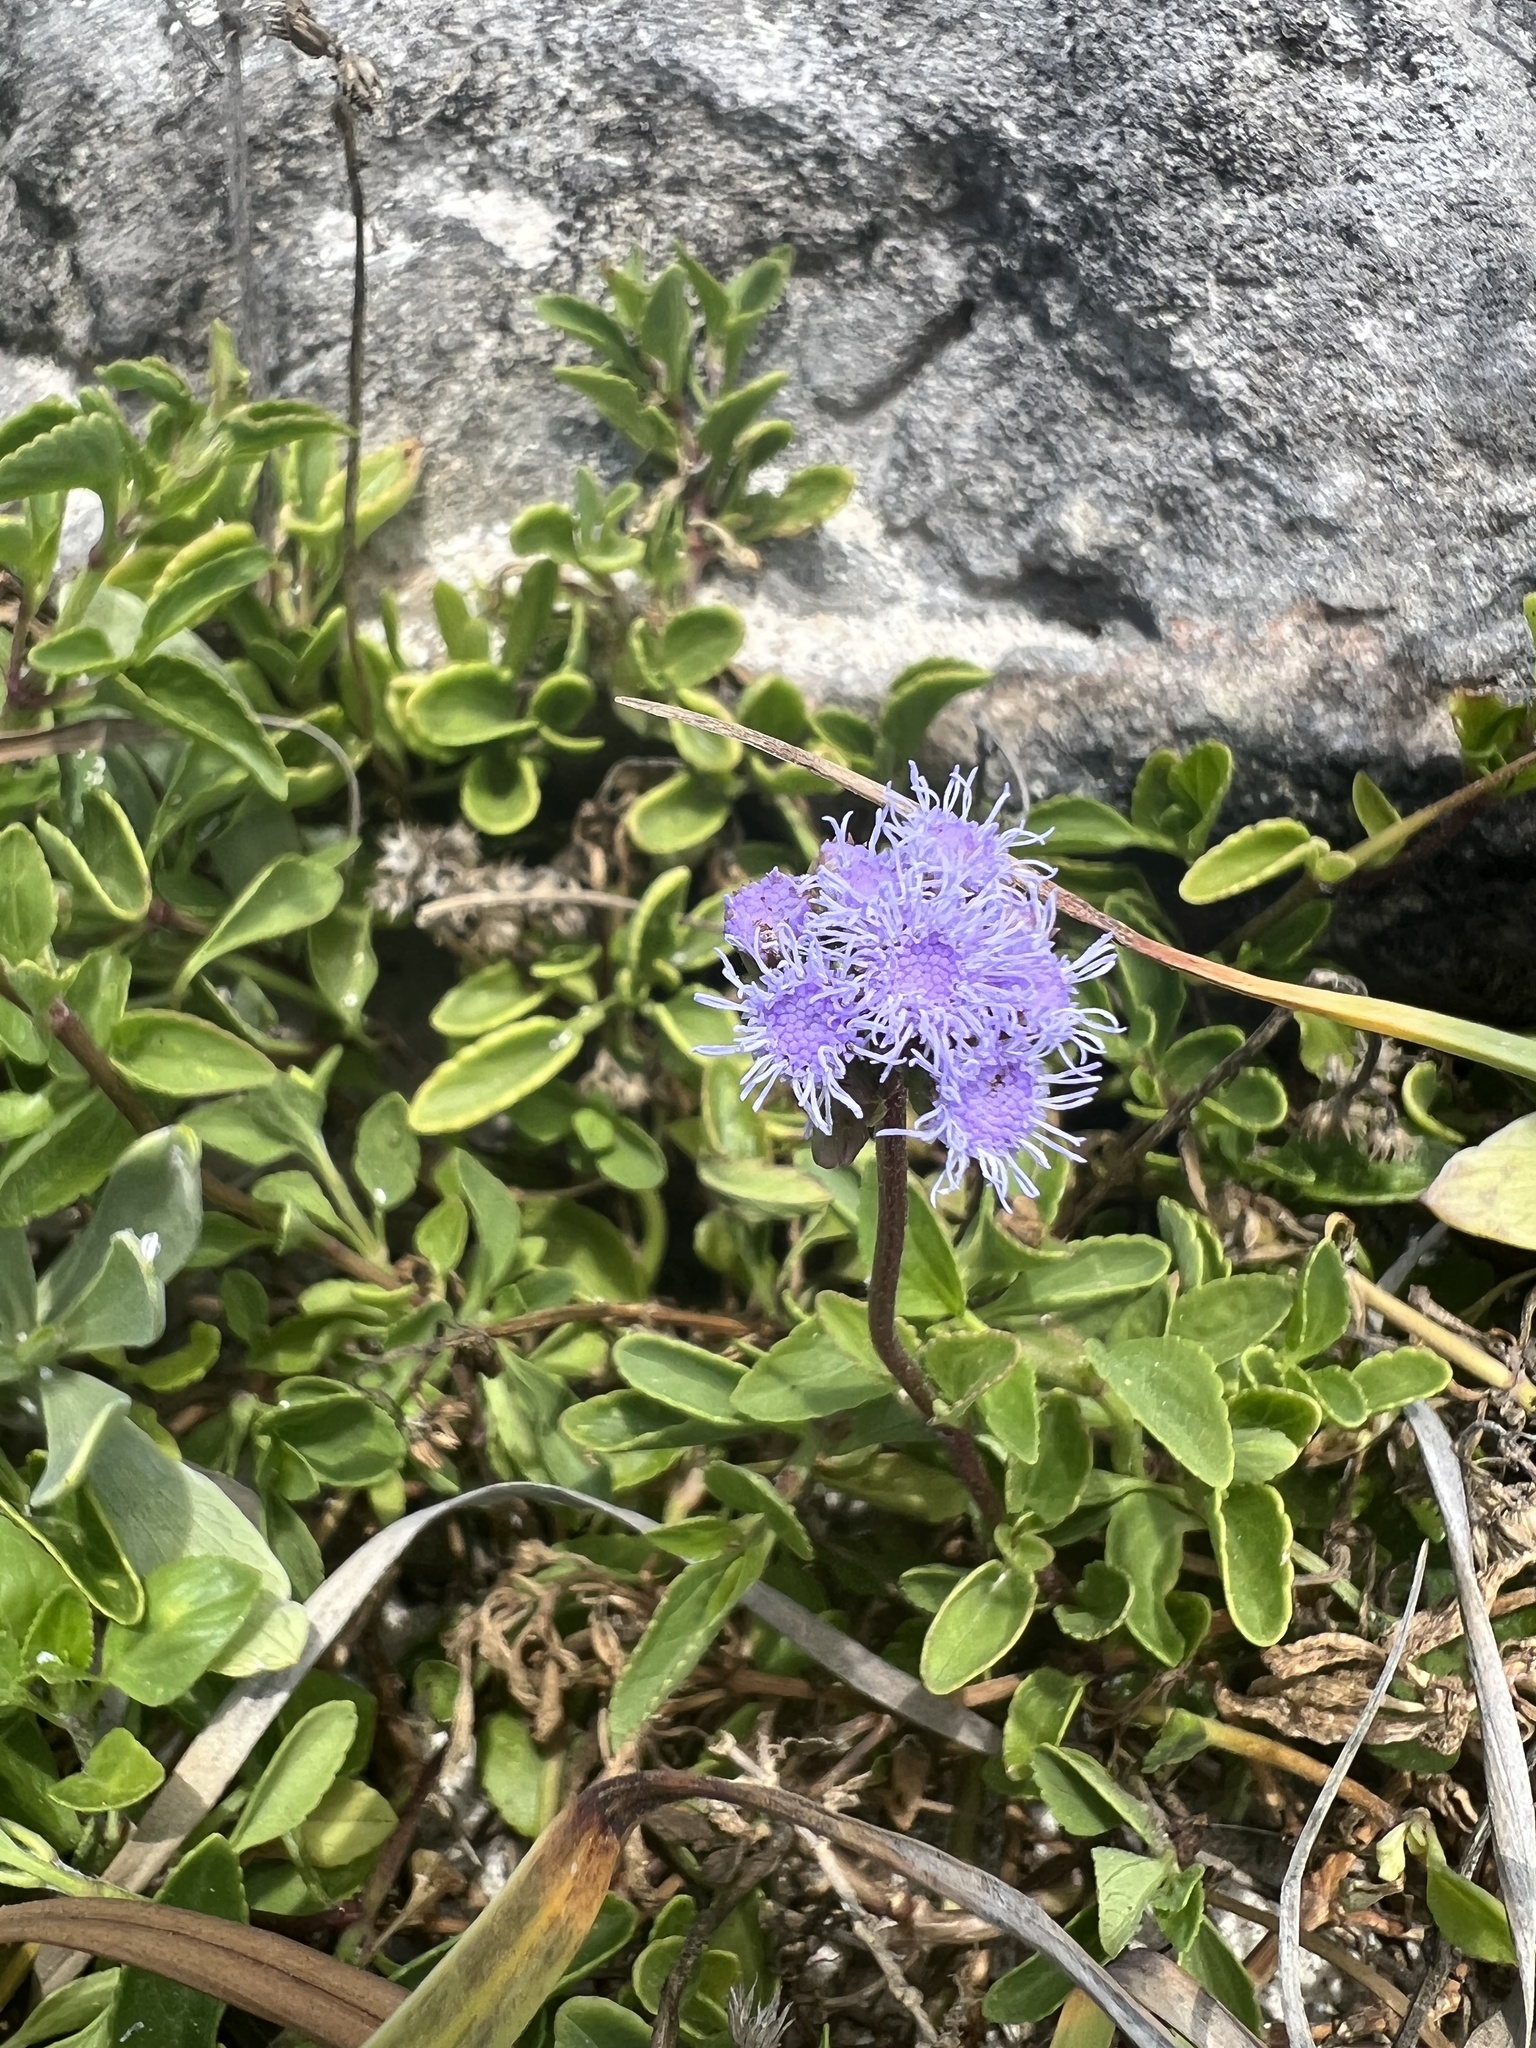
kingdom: Plantae
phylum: Tracheophyta
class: Magnoliopsida
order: Asterales
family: Asteraceae
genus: Ageratum
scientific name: Ageratum maritimum
